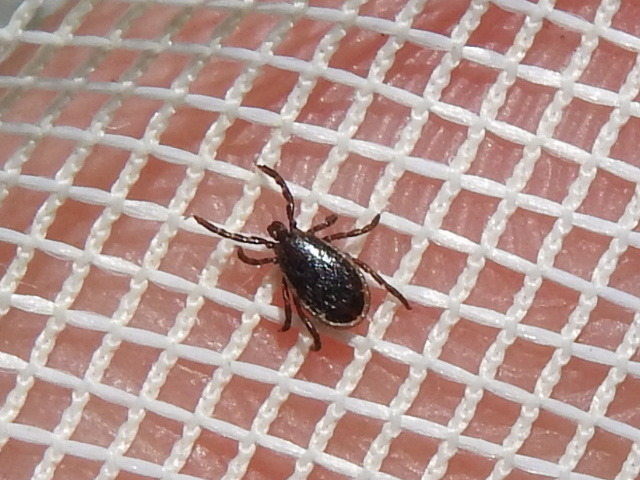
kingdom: Animalia
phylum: Arthropoda
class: Arachnida
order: Ixodida
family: Ixodidae
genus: Ixodes
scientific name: Ixodes scapularis
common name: Black legged tick
